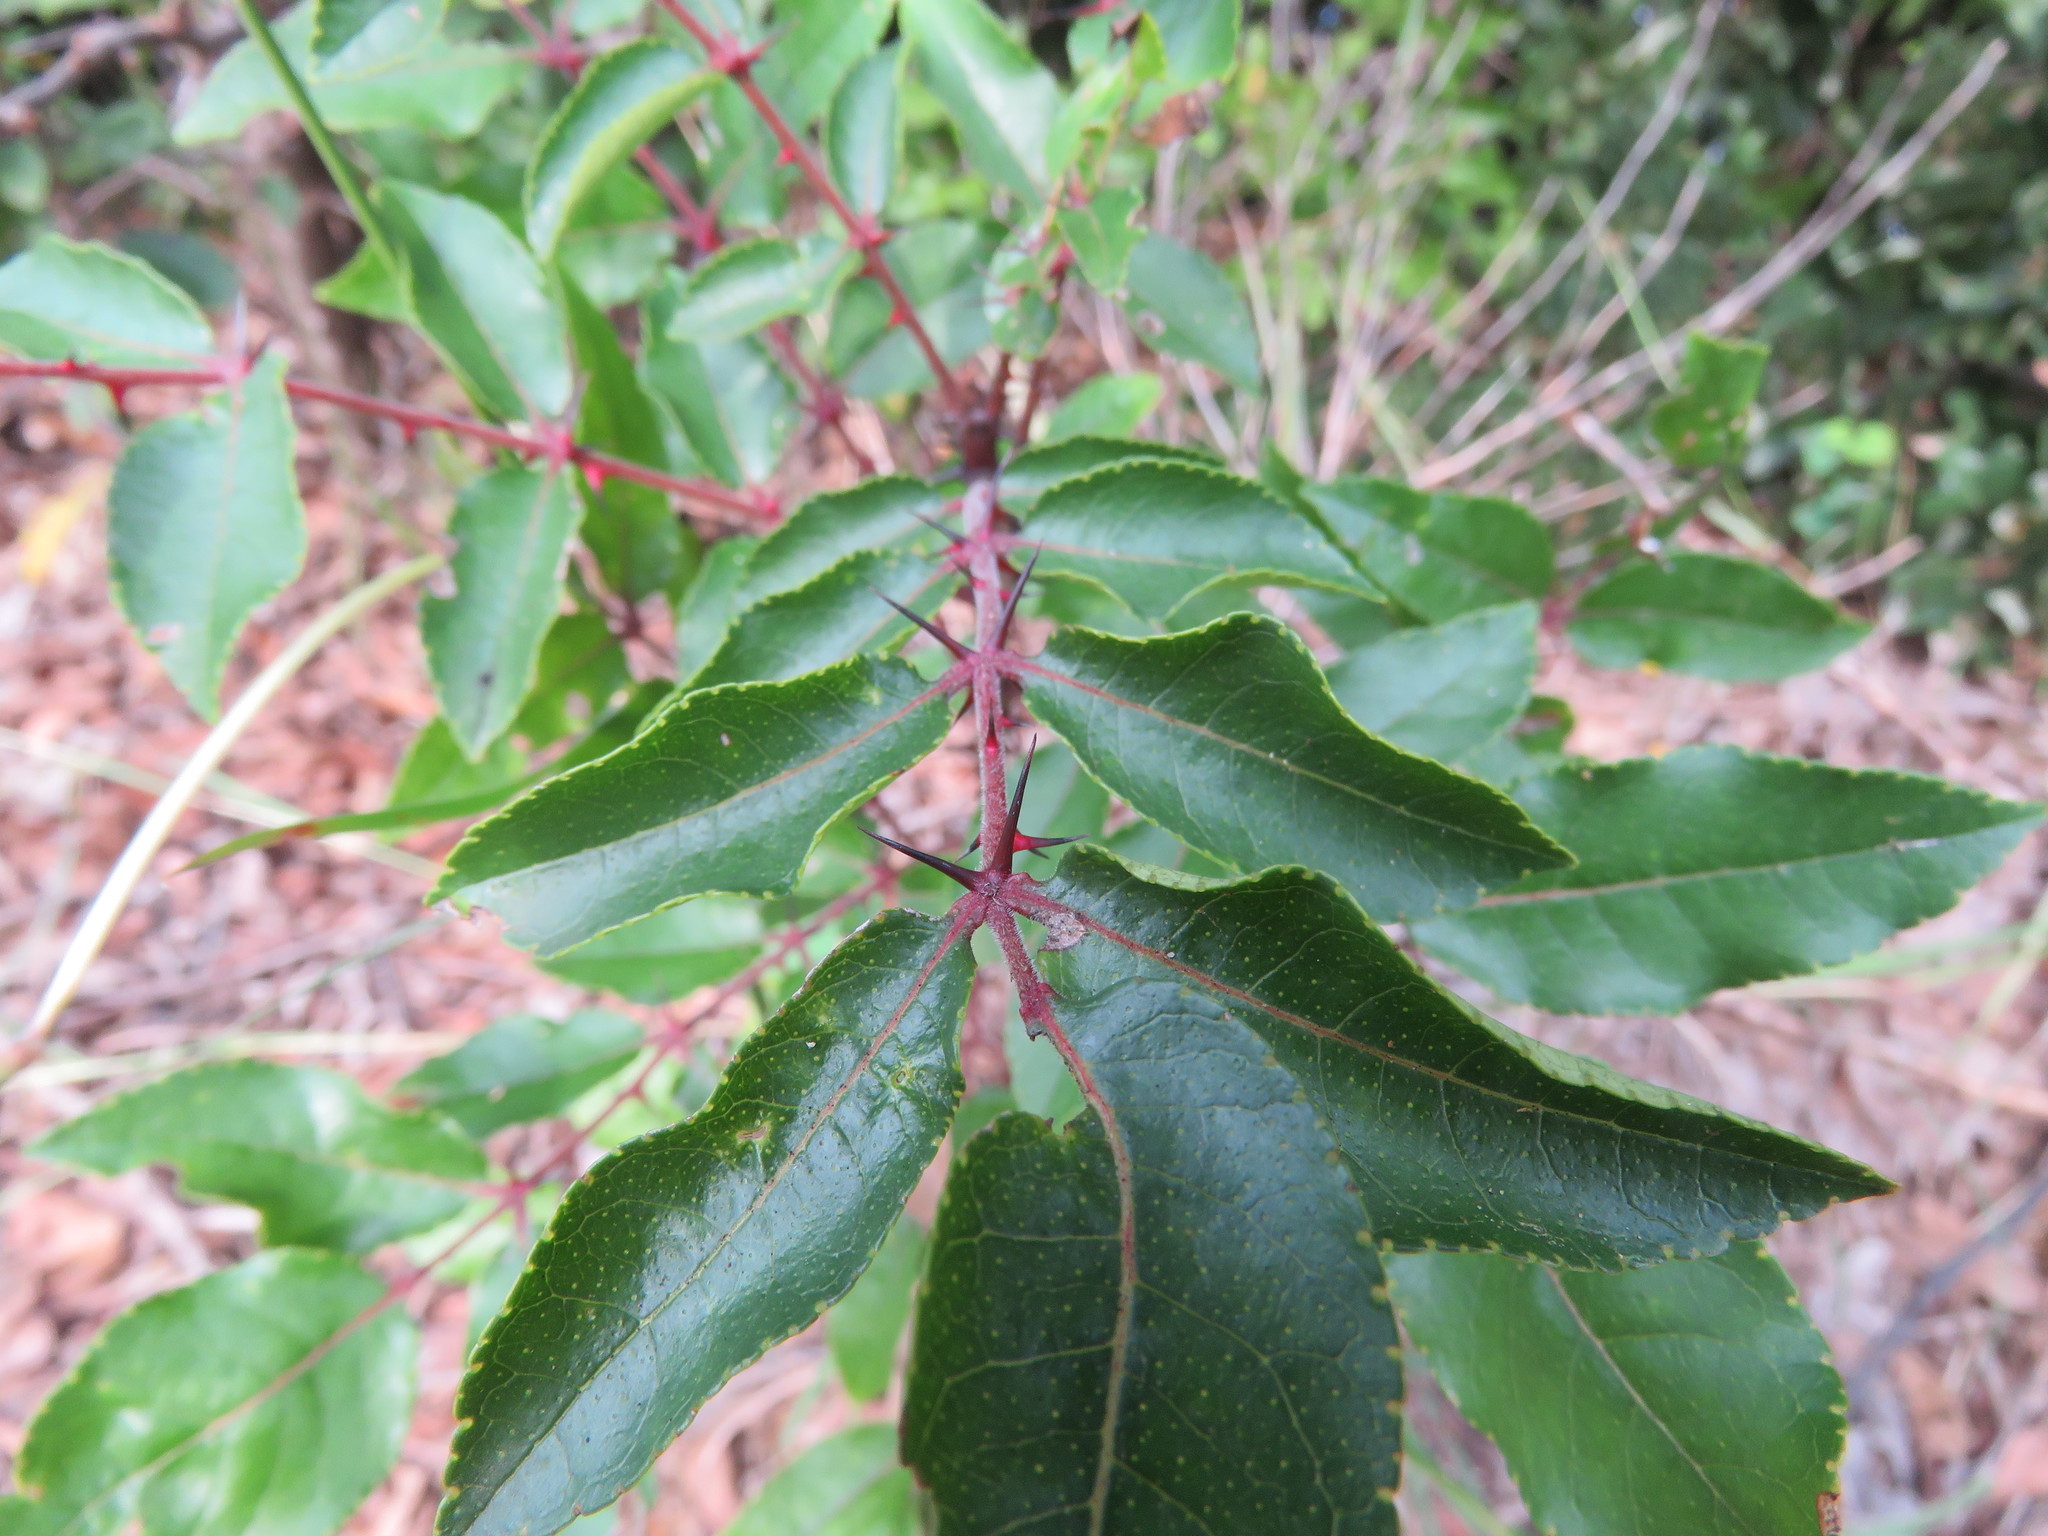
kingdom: Plantae
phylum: Tracheophyta
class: Magnoliopsida
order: Sapindales
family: Rutaceae
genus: Zanthoxylum
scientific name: Zanthoxylum clava-herculis
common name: Hercules'-club
